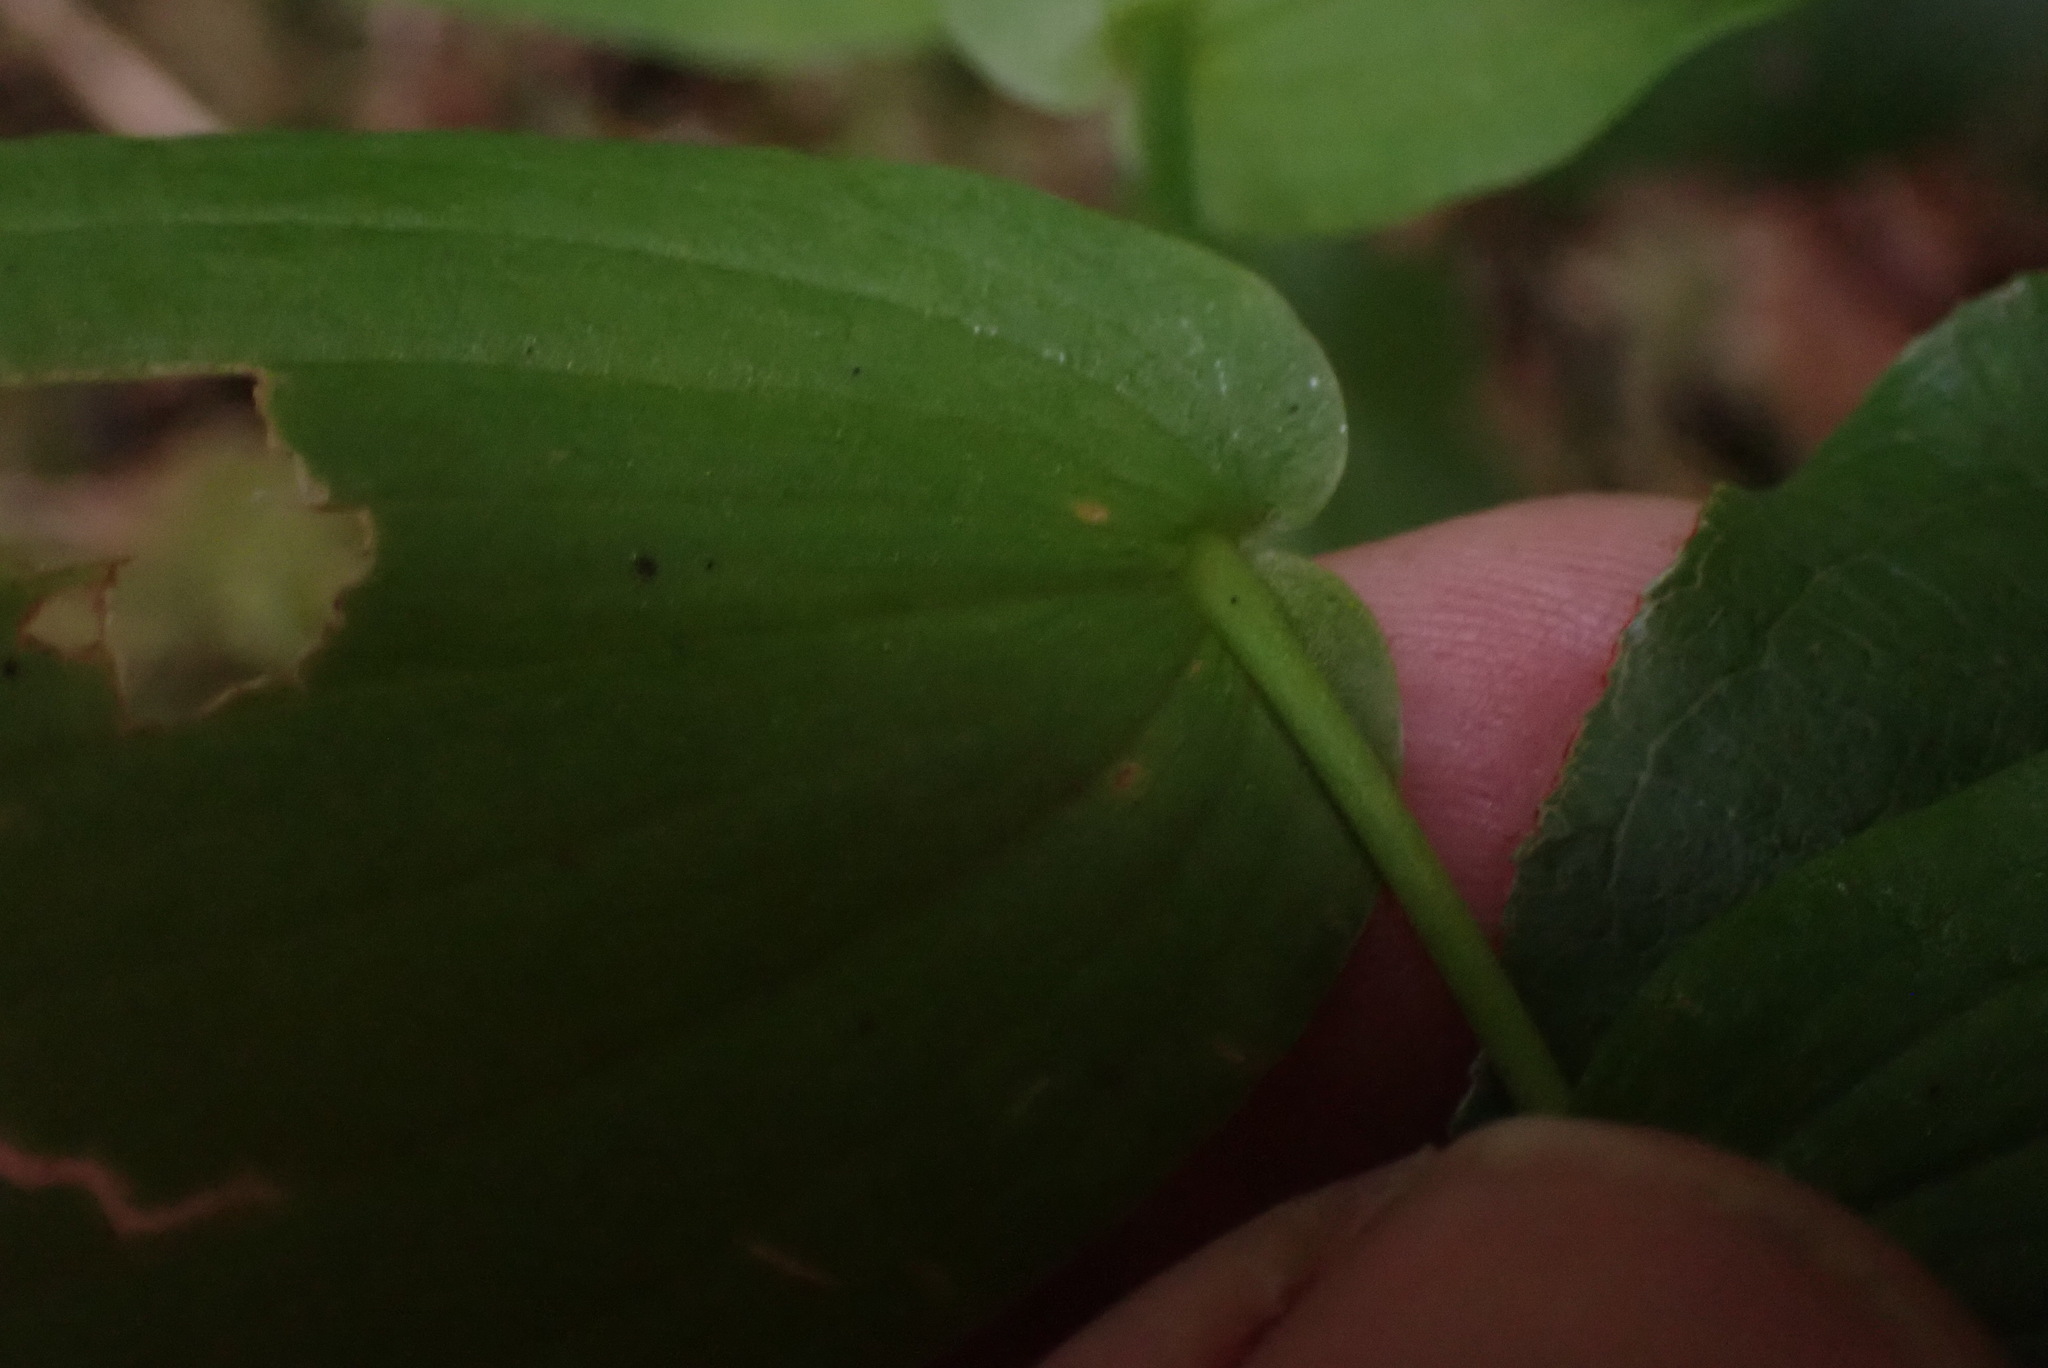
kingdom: Plantae
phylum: Tracheophyta
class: Liliopsida
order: Liliales
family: Liliaceae
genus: Streptopus
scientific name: Streptopus amplexifolius
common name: Clasp twisted stalk
